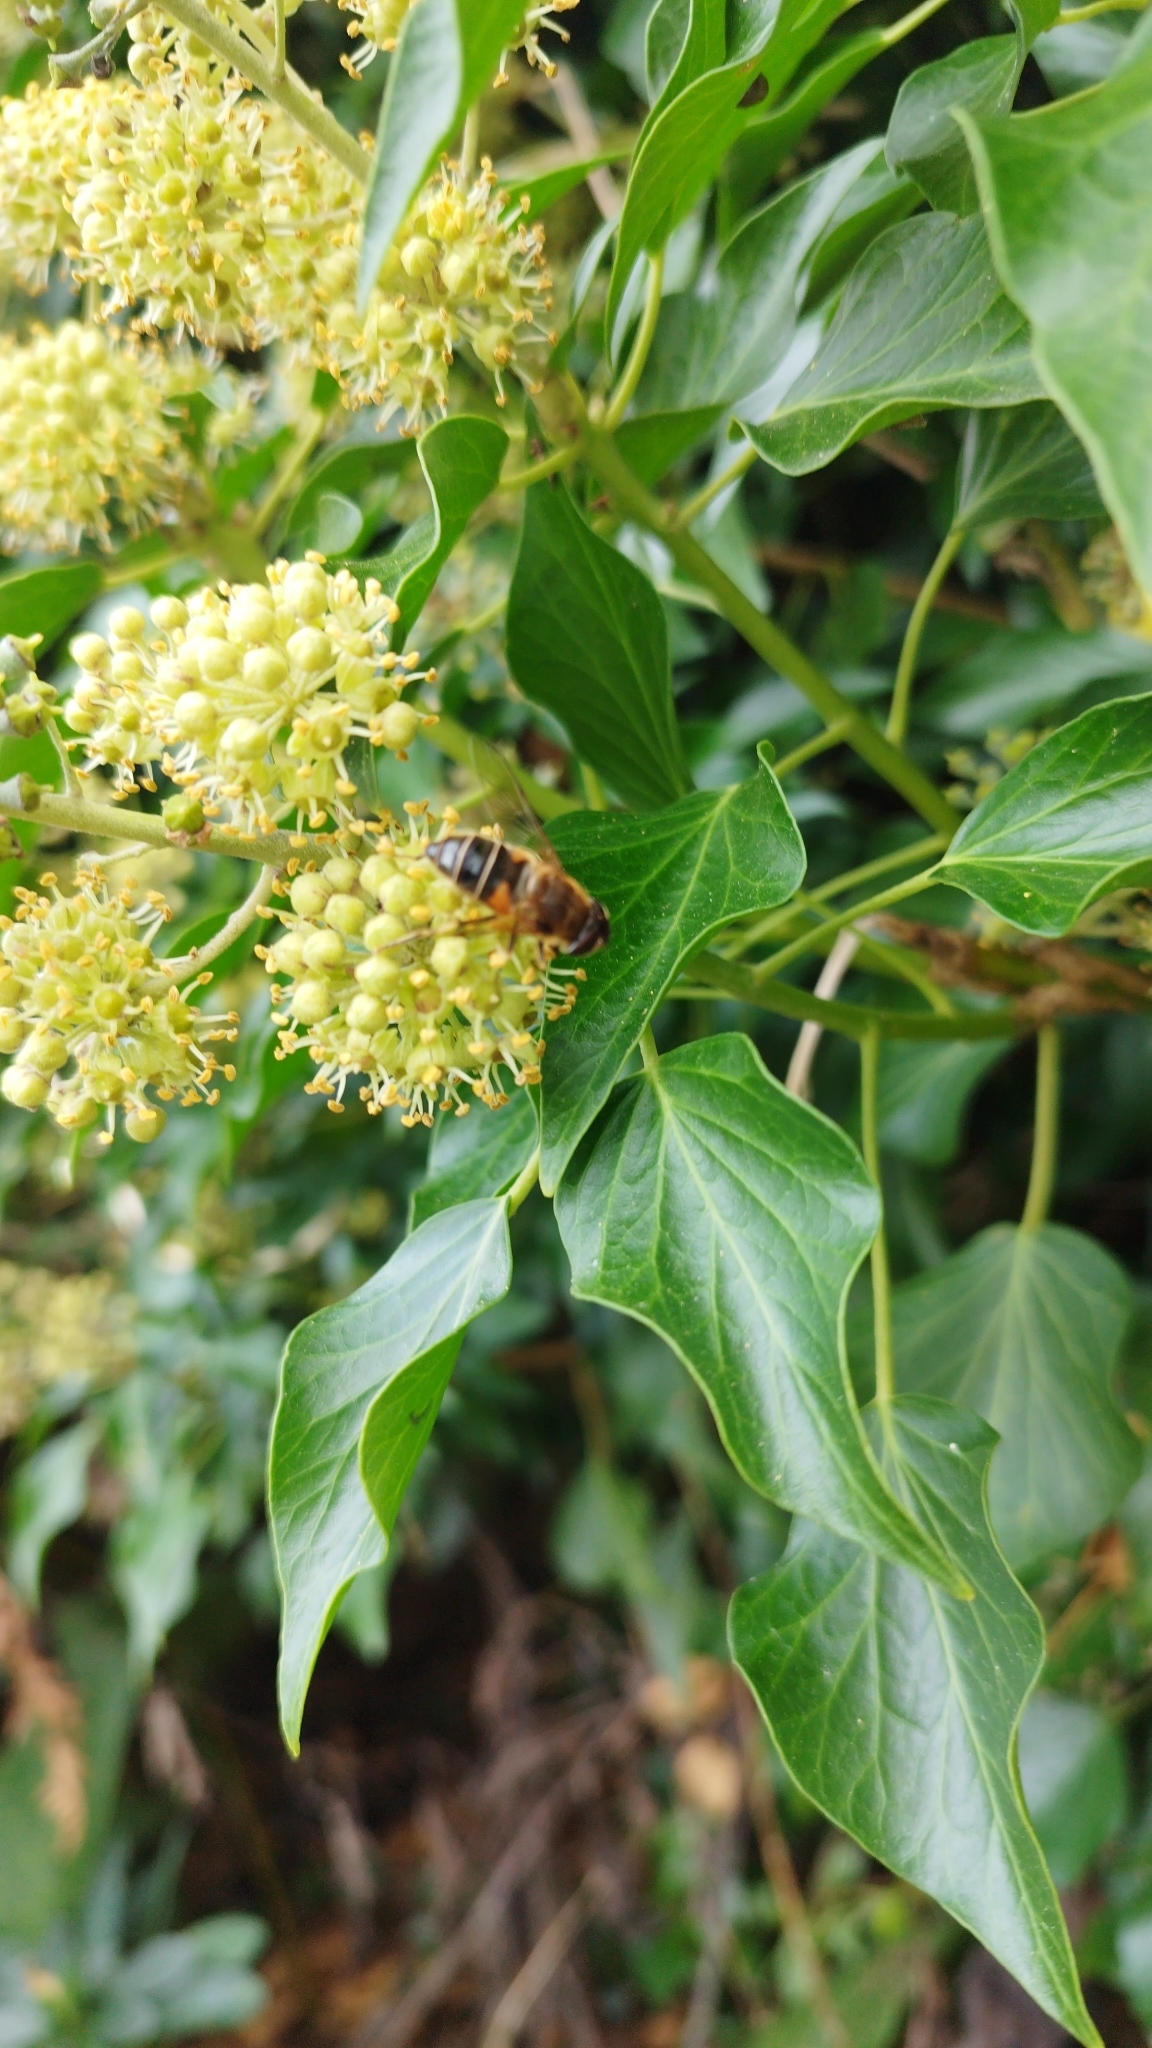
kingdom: Animalia
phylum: Arthropoda
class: Insecta
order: Diptera
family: Syrphidae
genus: Eristalis
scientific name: Eristalis pertinax
